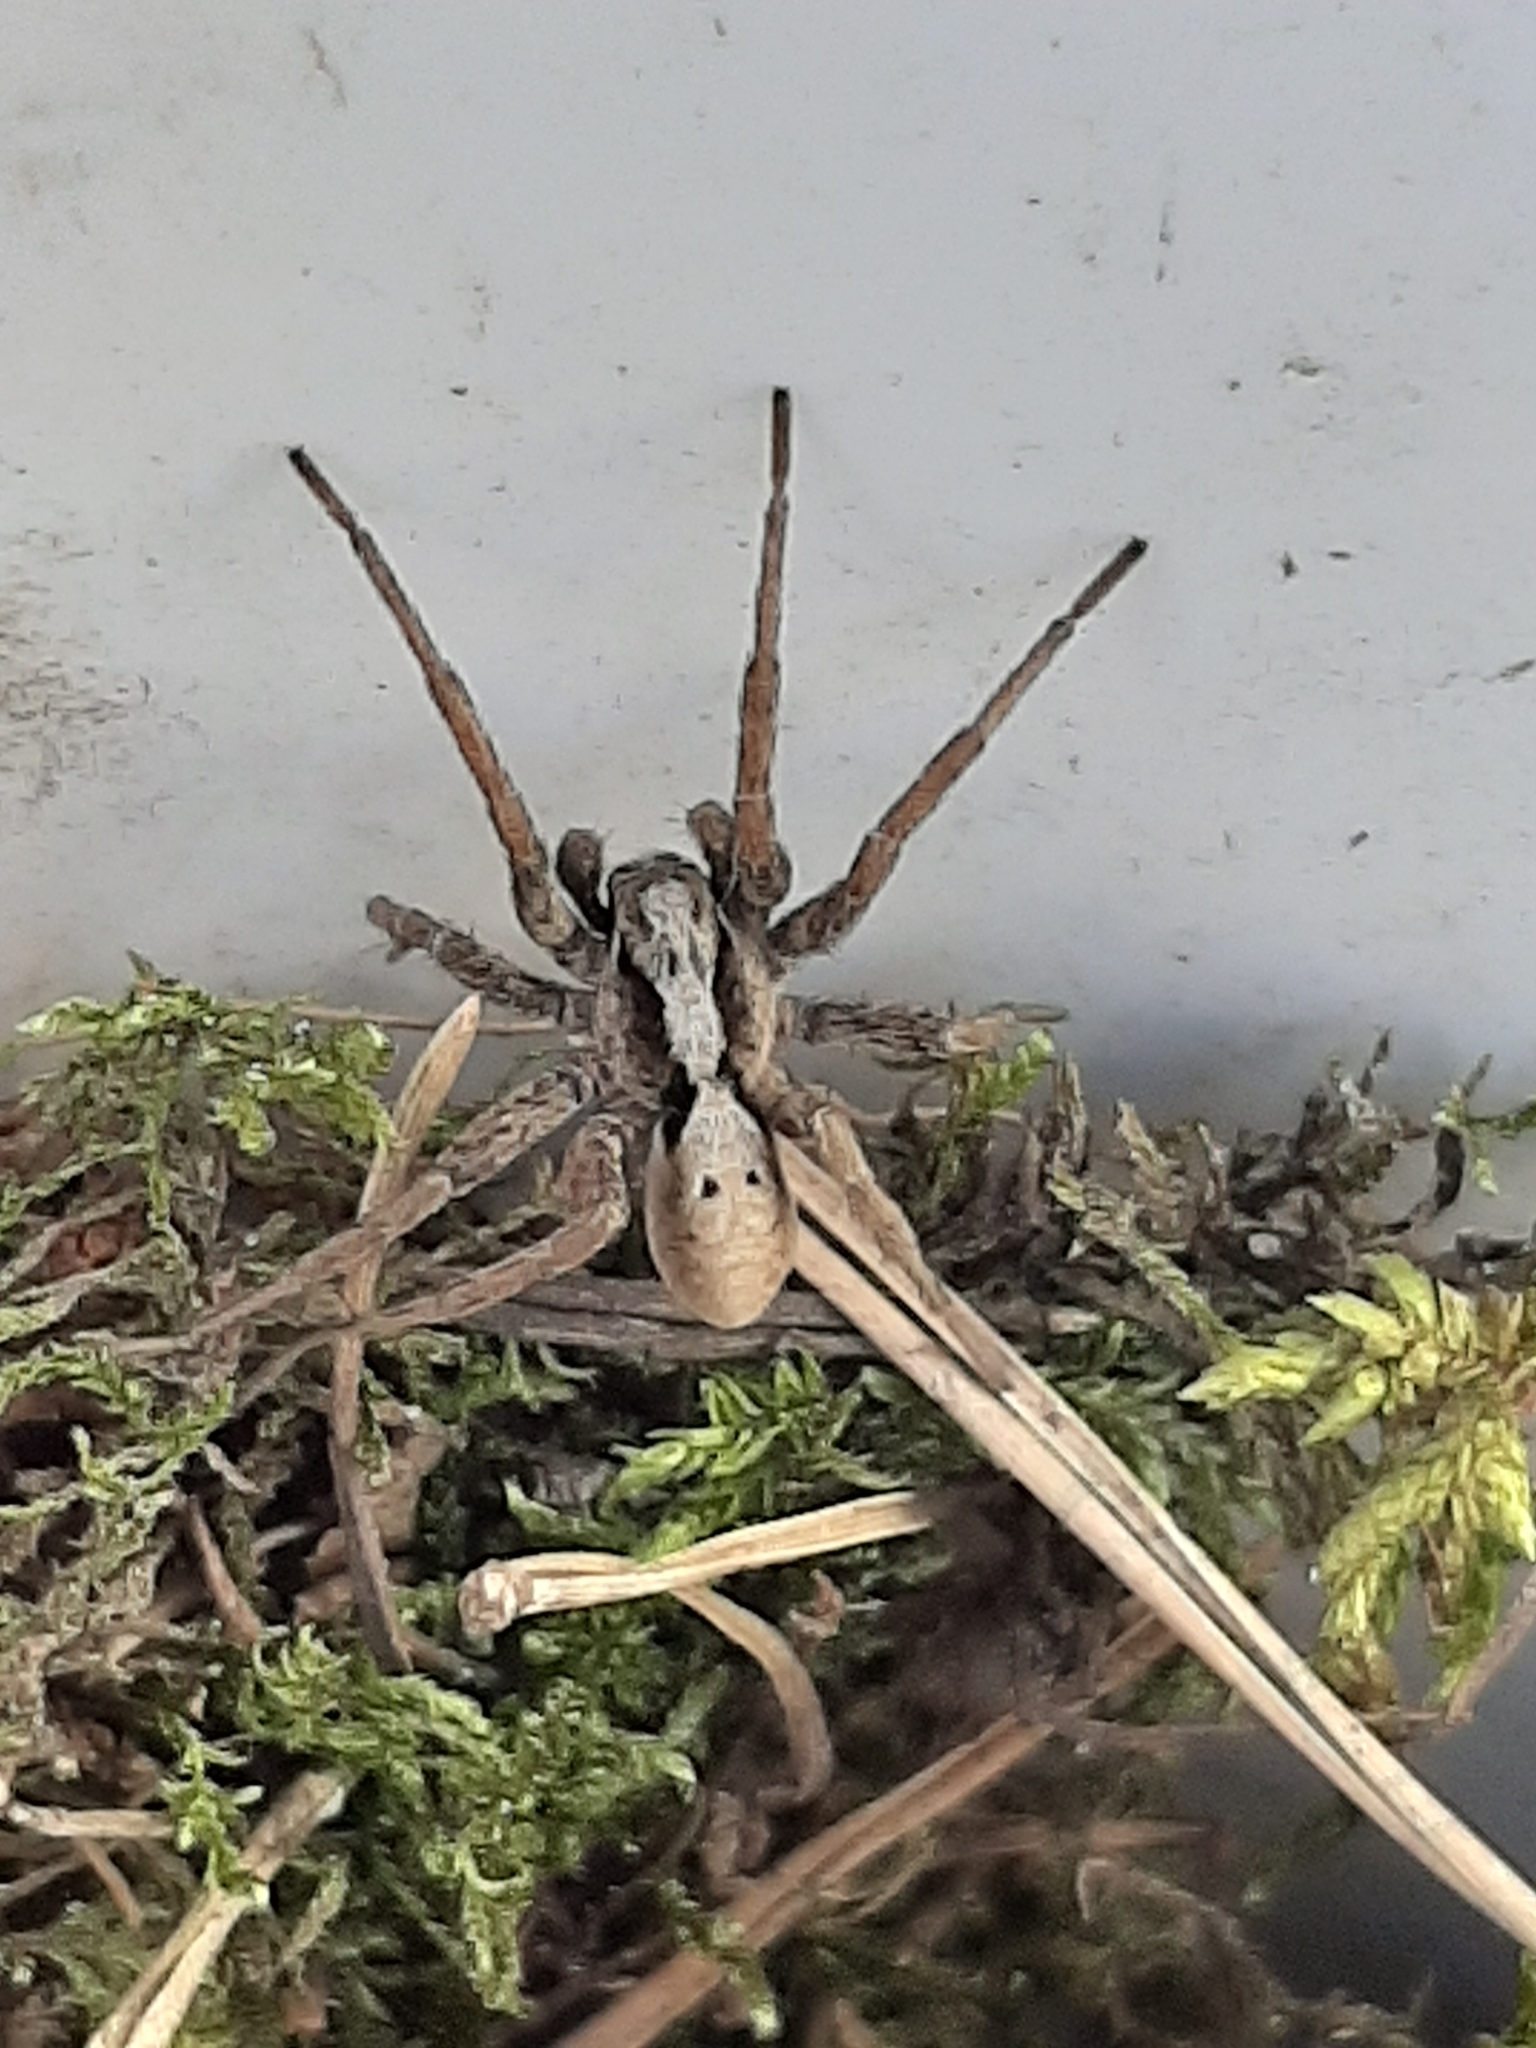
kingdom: Animalia
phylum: Arthropoda
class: Arachnida
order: Araneae
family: Lycosidae
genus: Alopecosa
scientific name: Alopecosa inquilina
